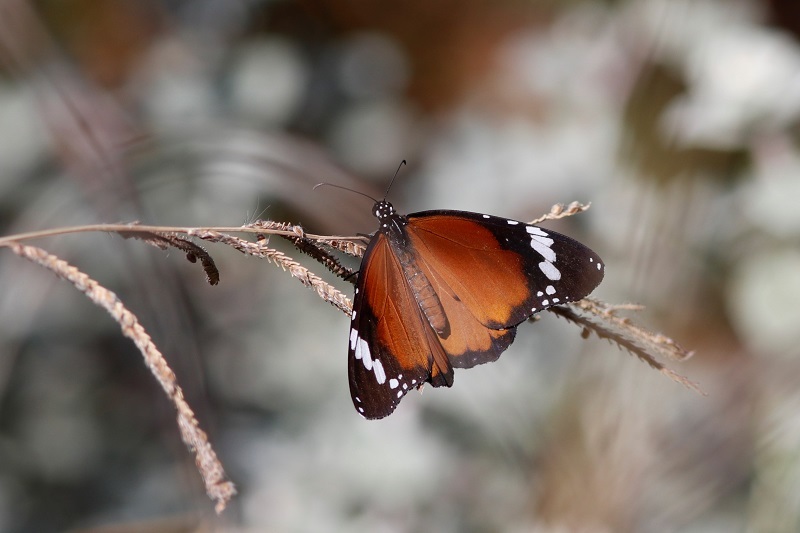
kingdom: Animalia
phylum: Arthropoda
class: Insecta
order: Lepidoptera
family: Nymphalidae
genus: Danaus
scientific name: Danaus chrysippus
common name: Plain tiger
